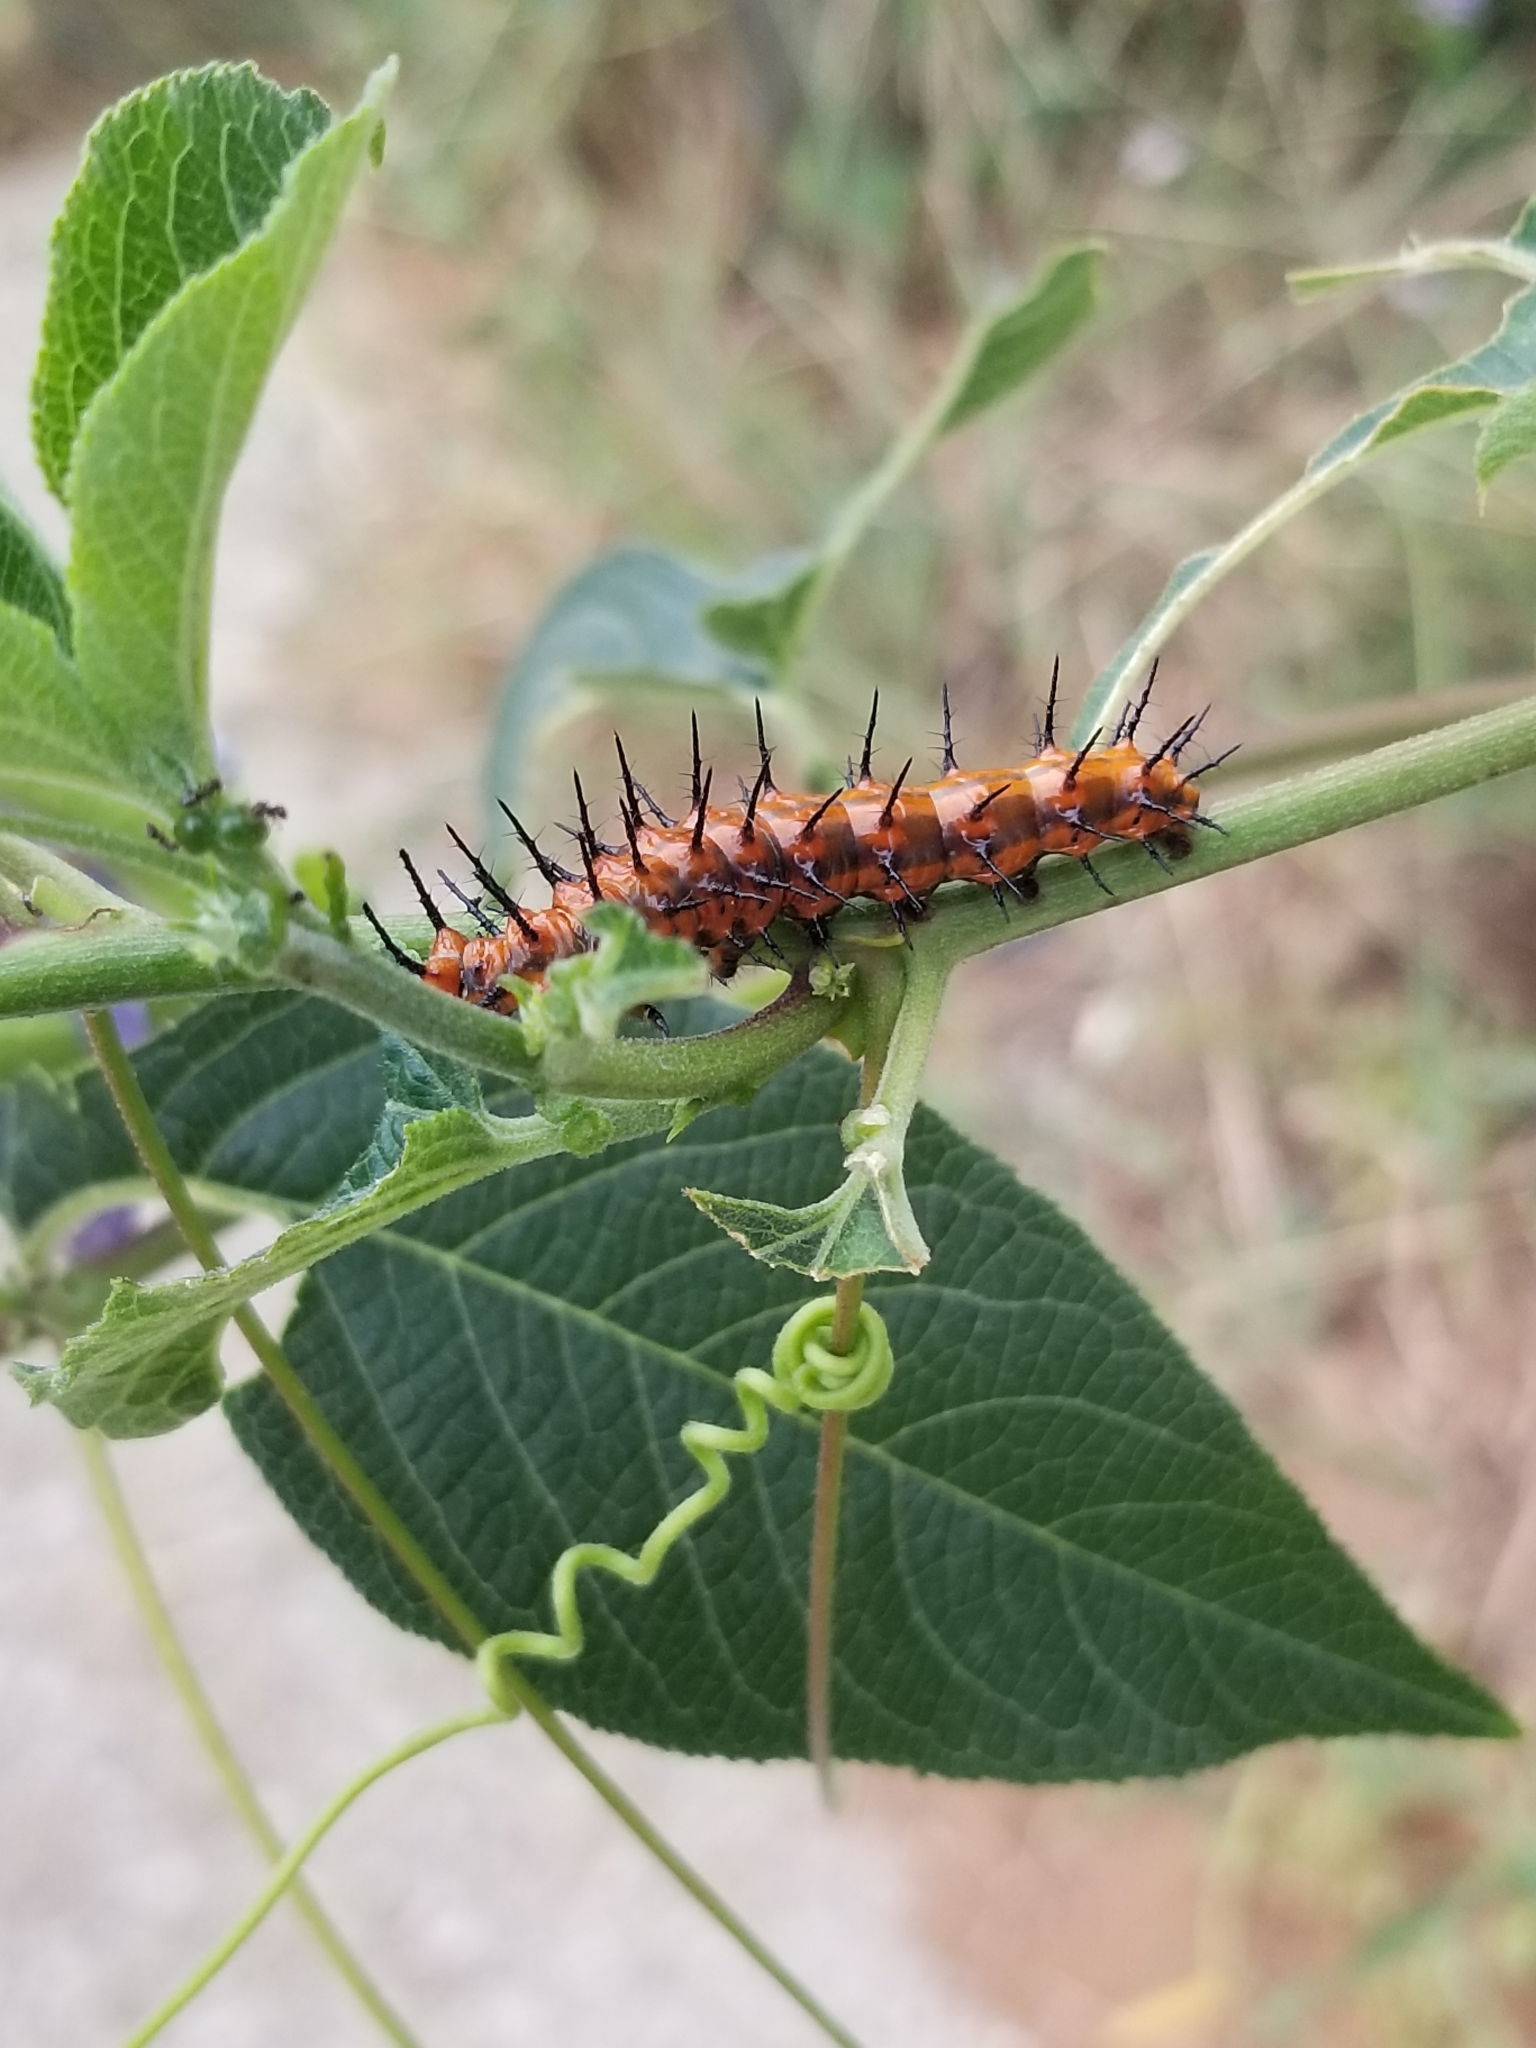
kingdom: Animalia
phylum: Arthropoda
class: Insecta
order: Lepidoptera
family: Nymphalidae
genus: Dione
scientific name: Dione vanillae
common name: Gulf fritillary
